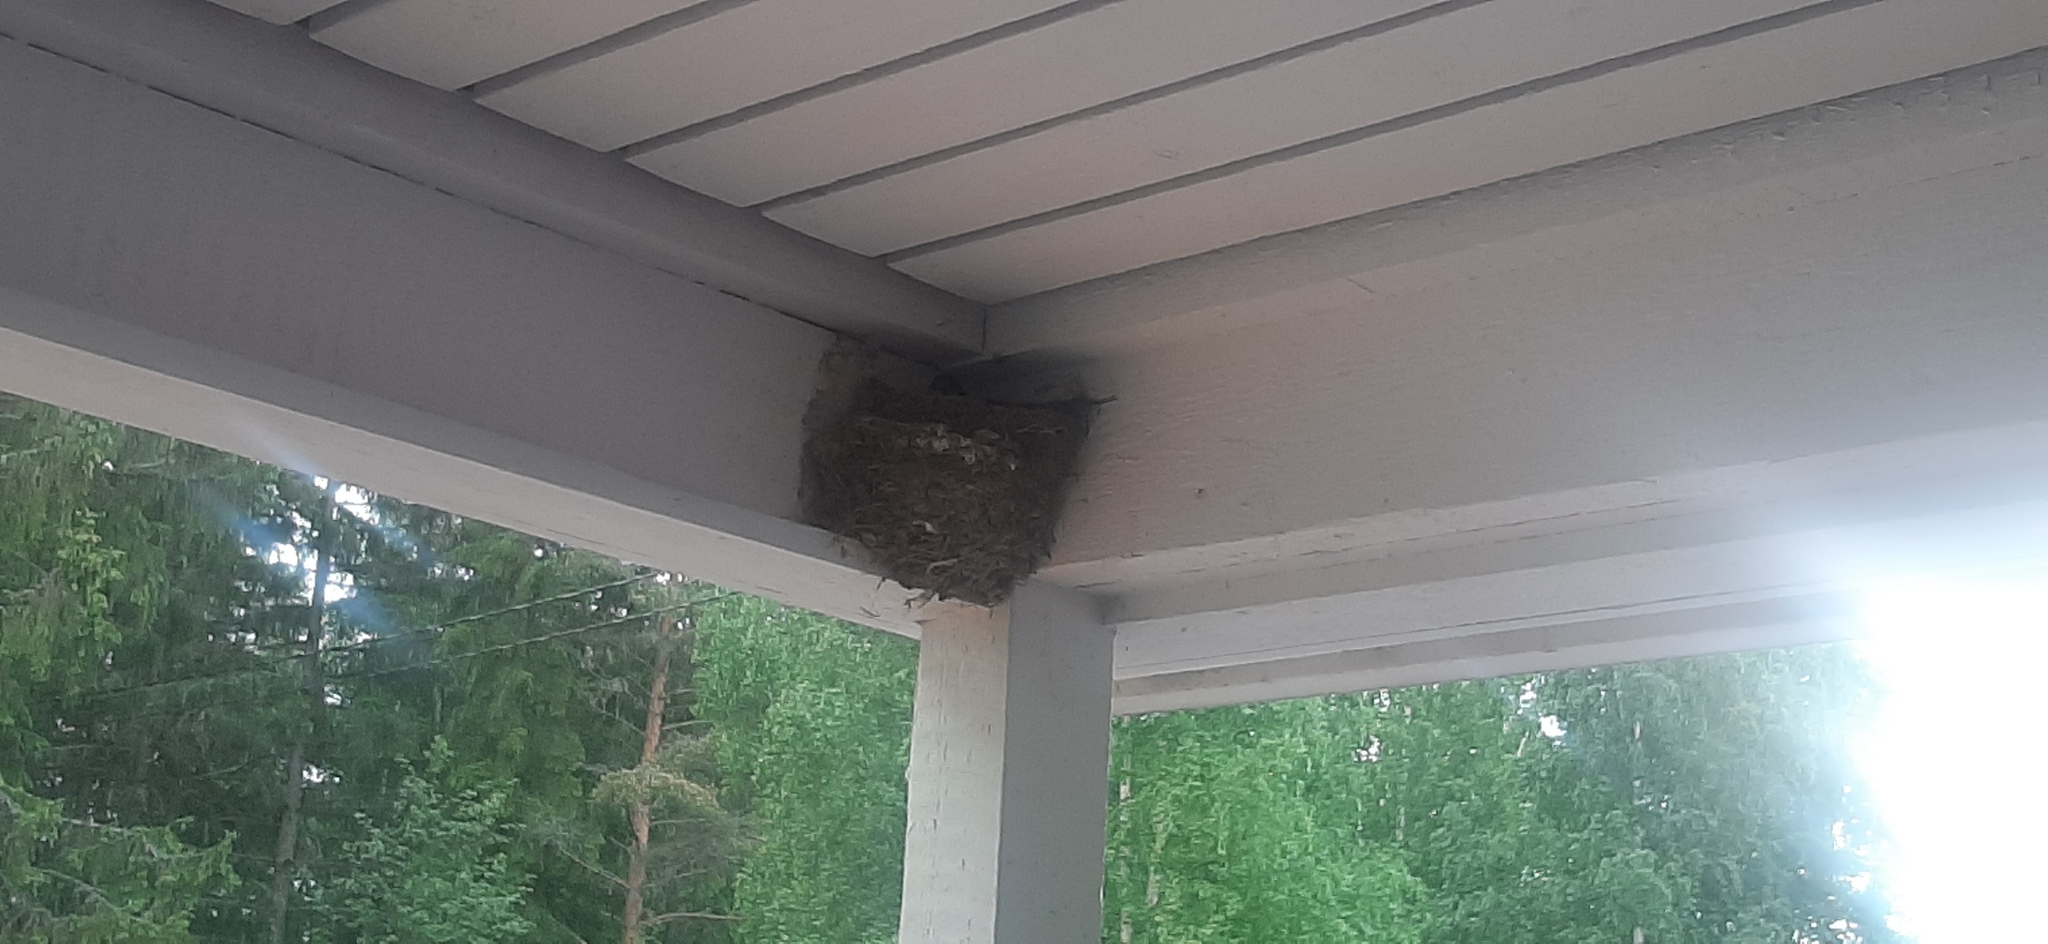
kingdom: Animalia
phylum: Chordata
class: Aves
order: Passeriformes
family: Hirundinidae
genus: Hirundo
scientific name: Hirundo rustica
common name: Barn swallow
